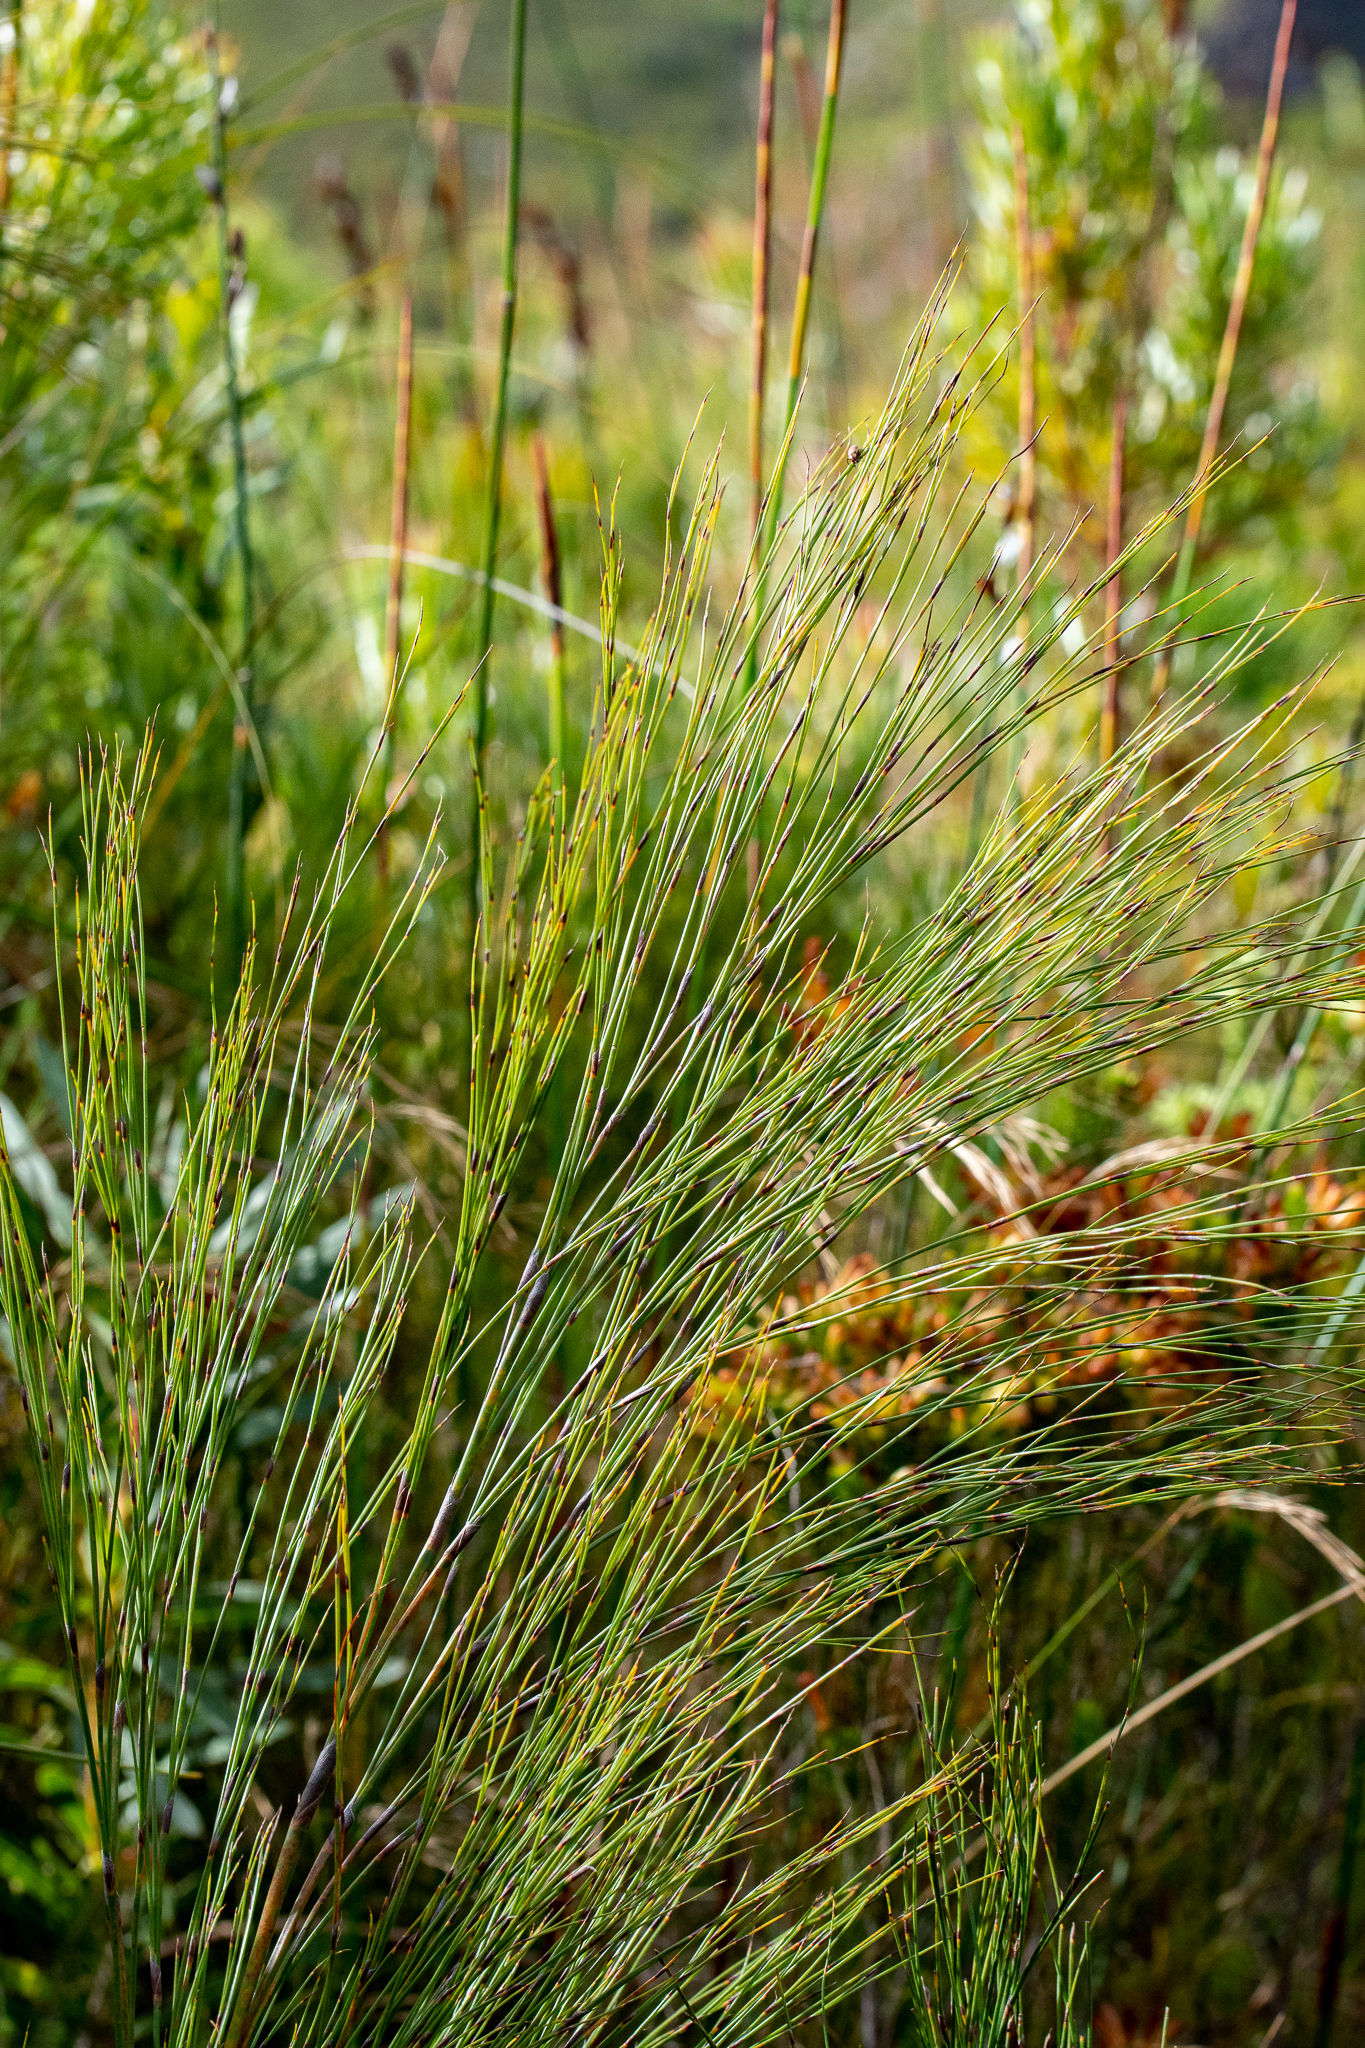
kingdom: Plantae
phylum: Tracheophyta
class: Liliopsida
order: Poales
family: Restionaceae
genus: Cannomois
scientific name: Cannomois virgata
